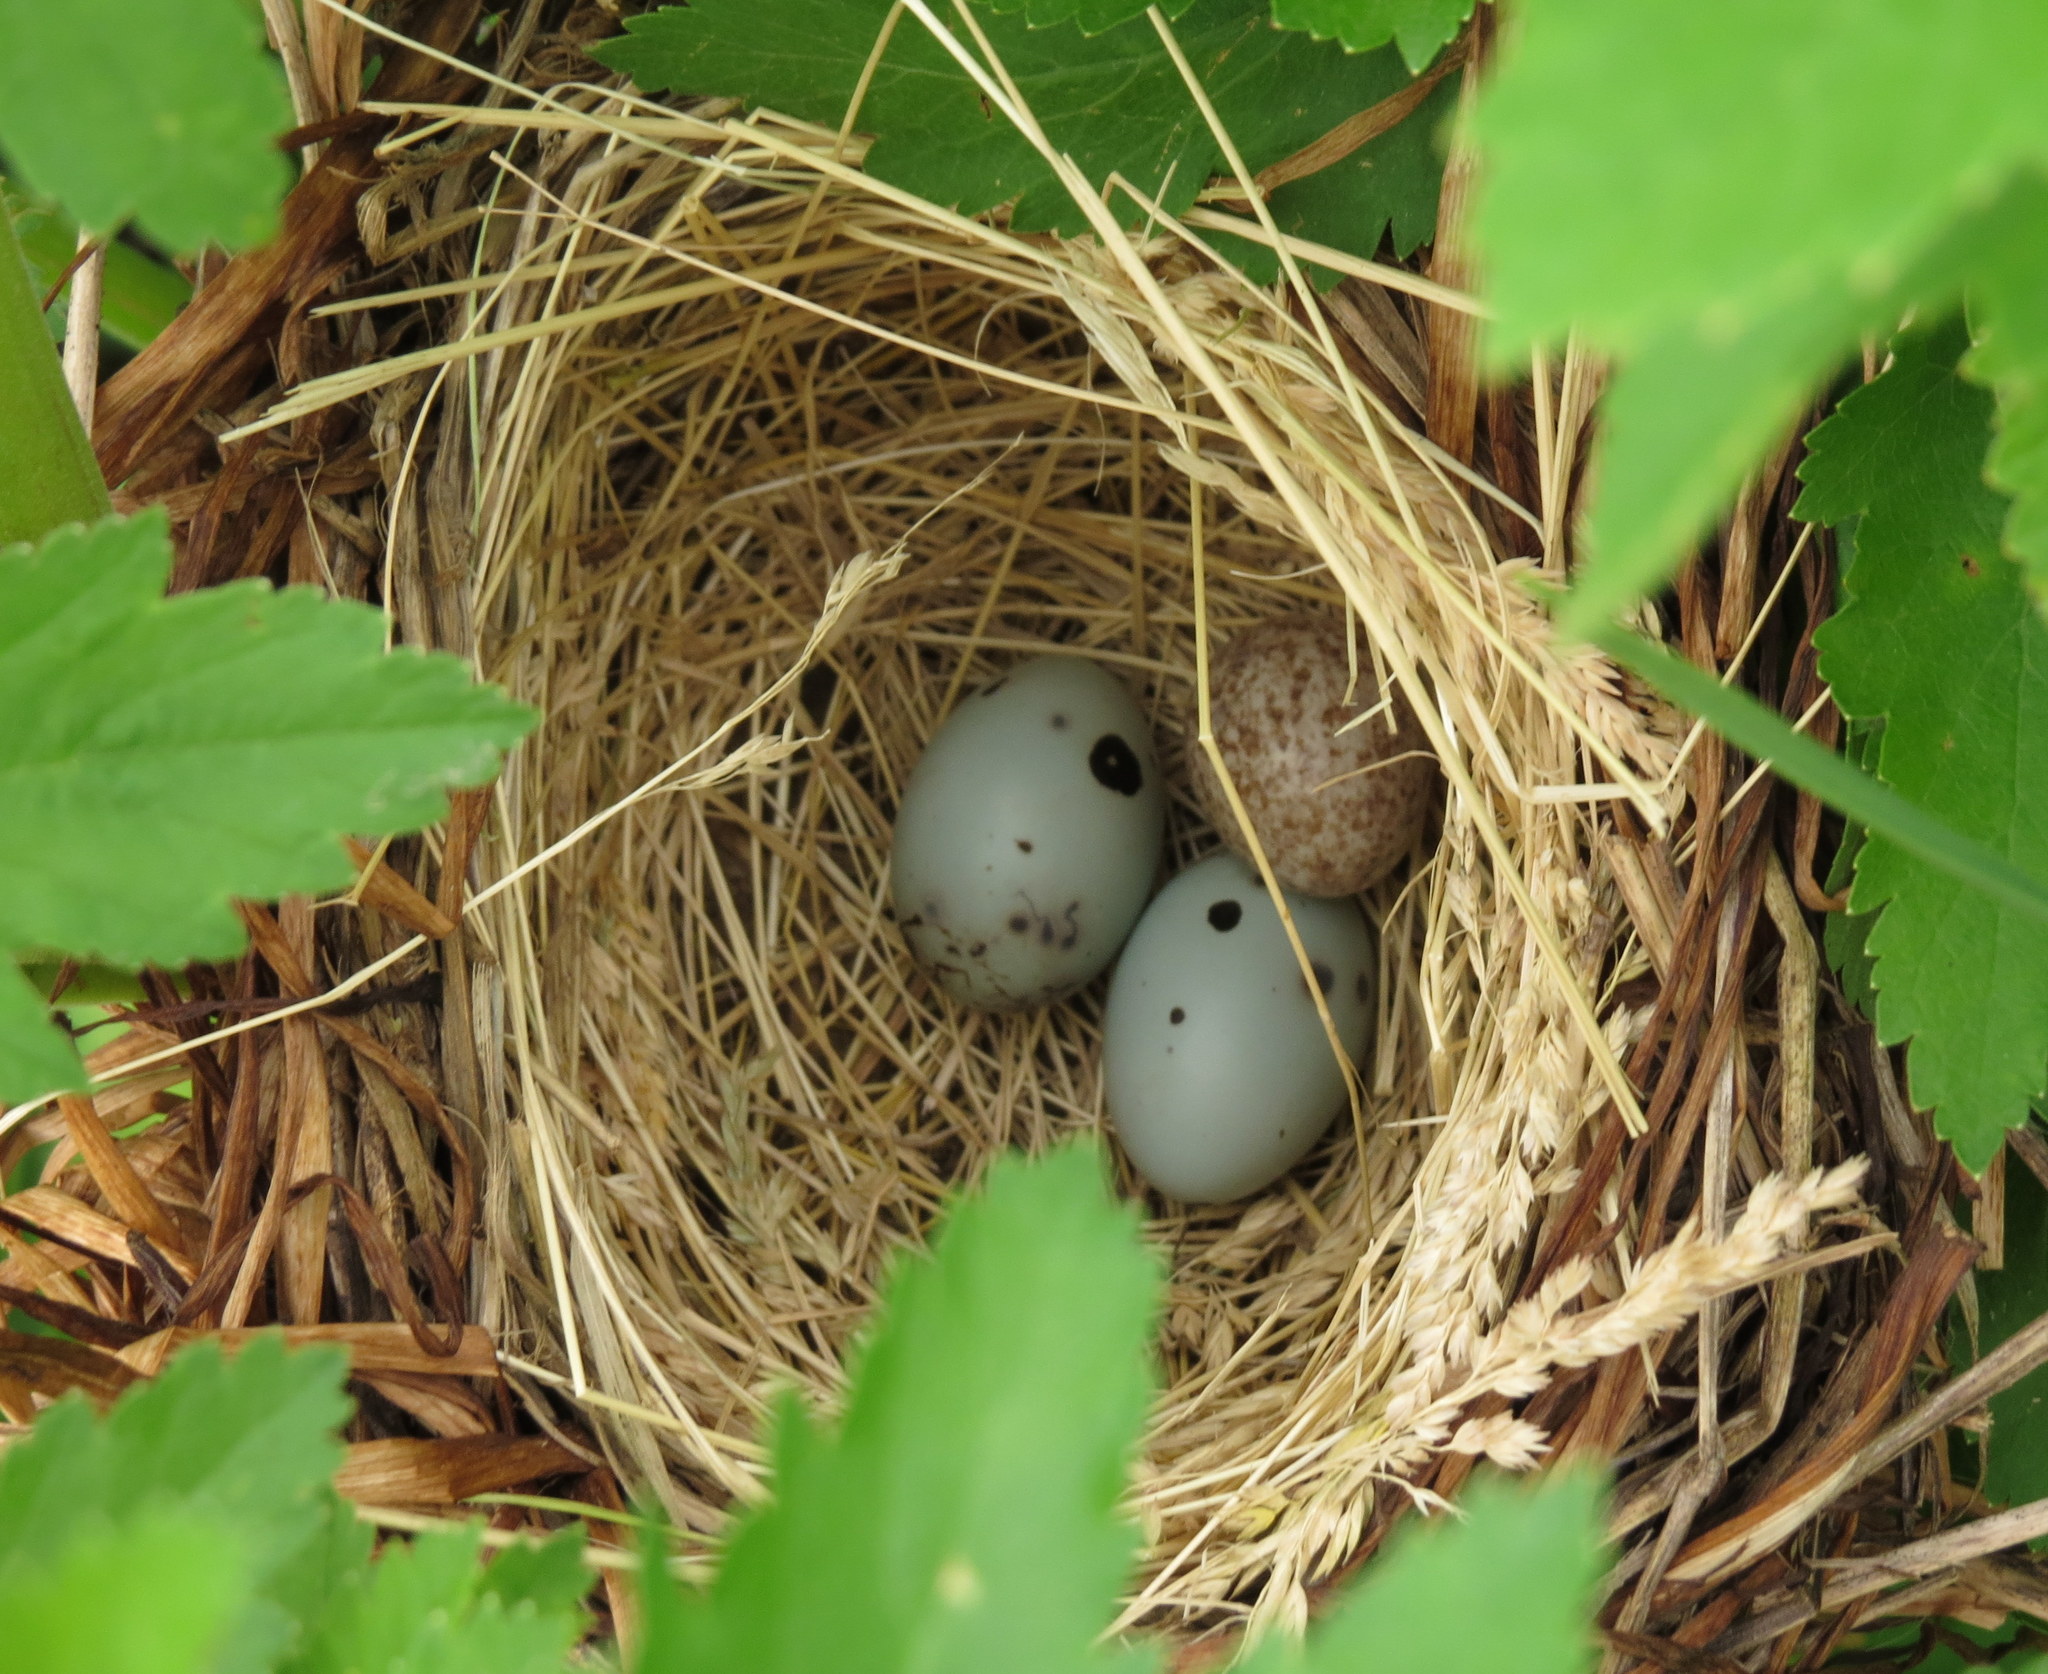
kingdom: Animalia
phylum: Chordata
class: Aves
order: Passeriformes
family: Icteridae
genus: Molothrus
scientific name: Molothrus ater
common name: Brown-headed cowbird
